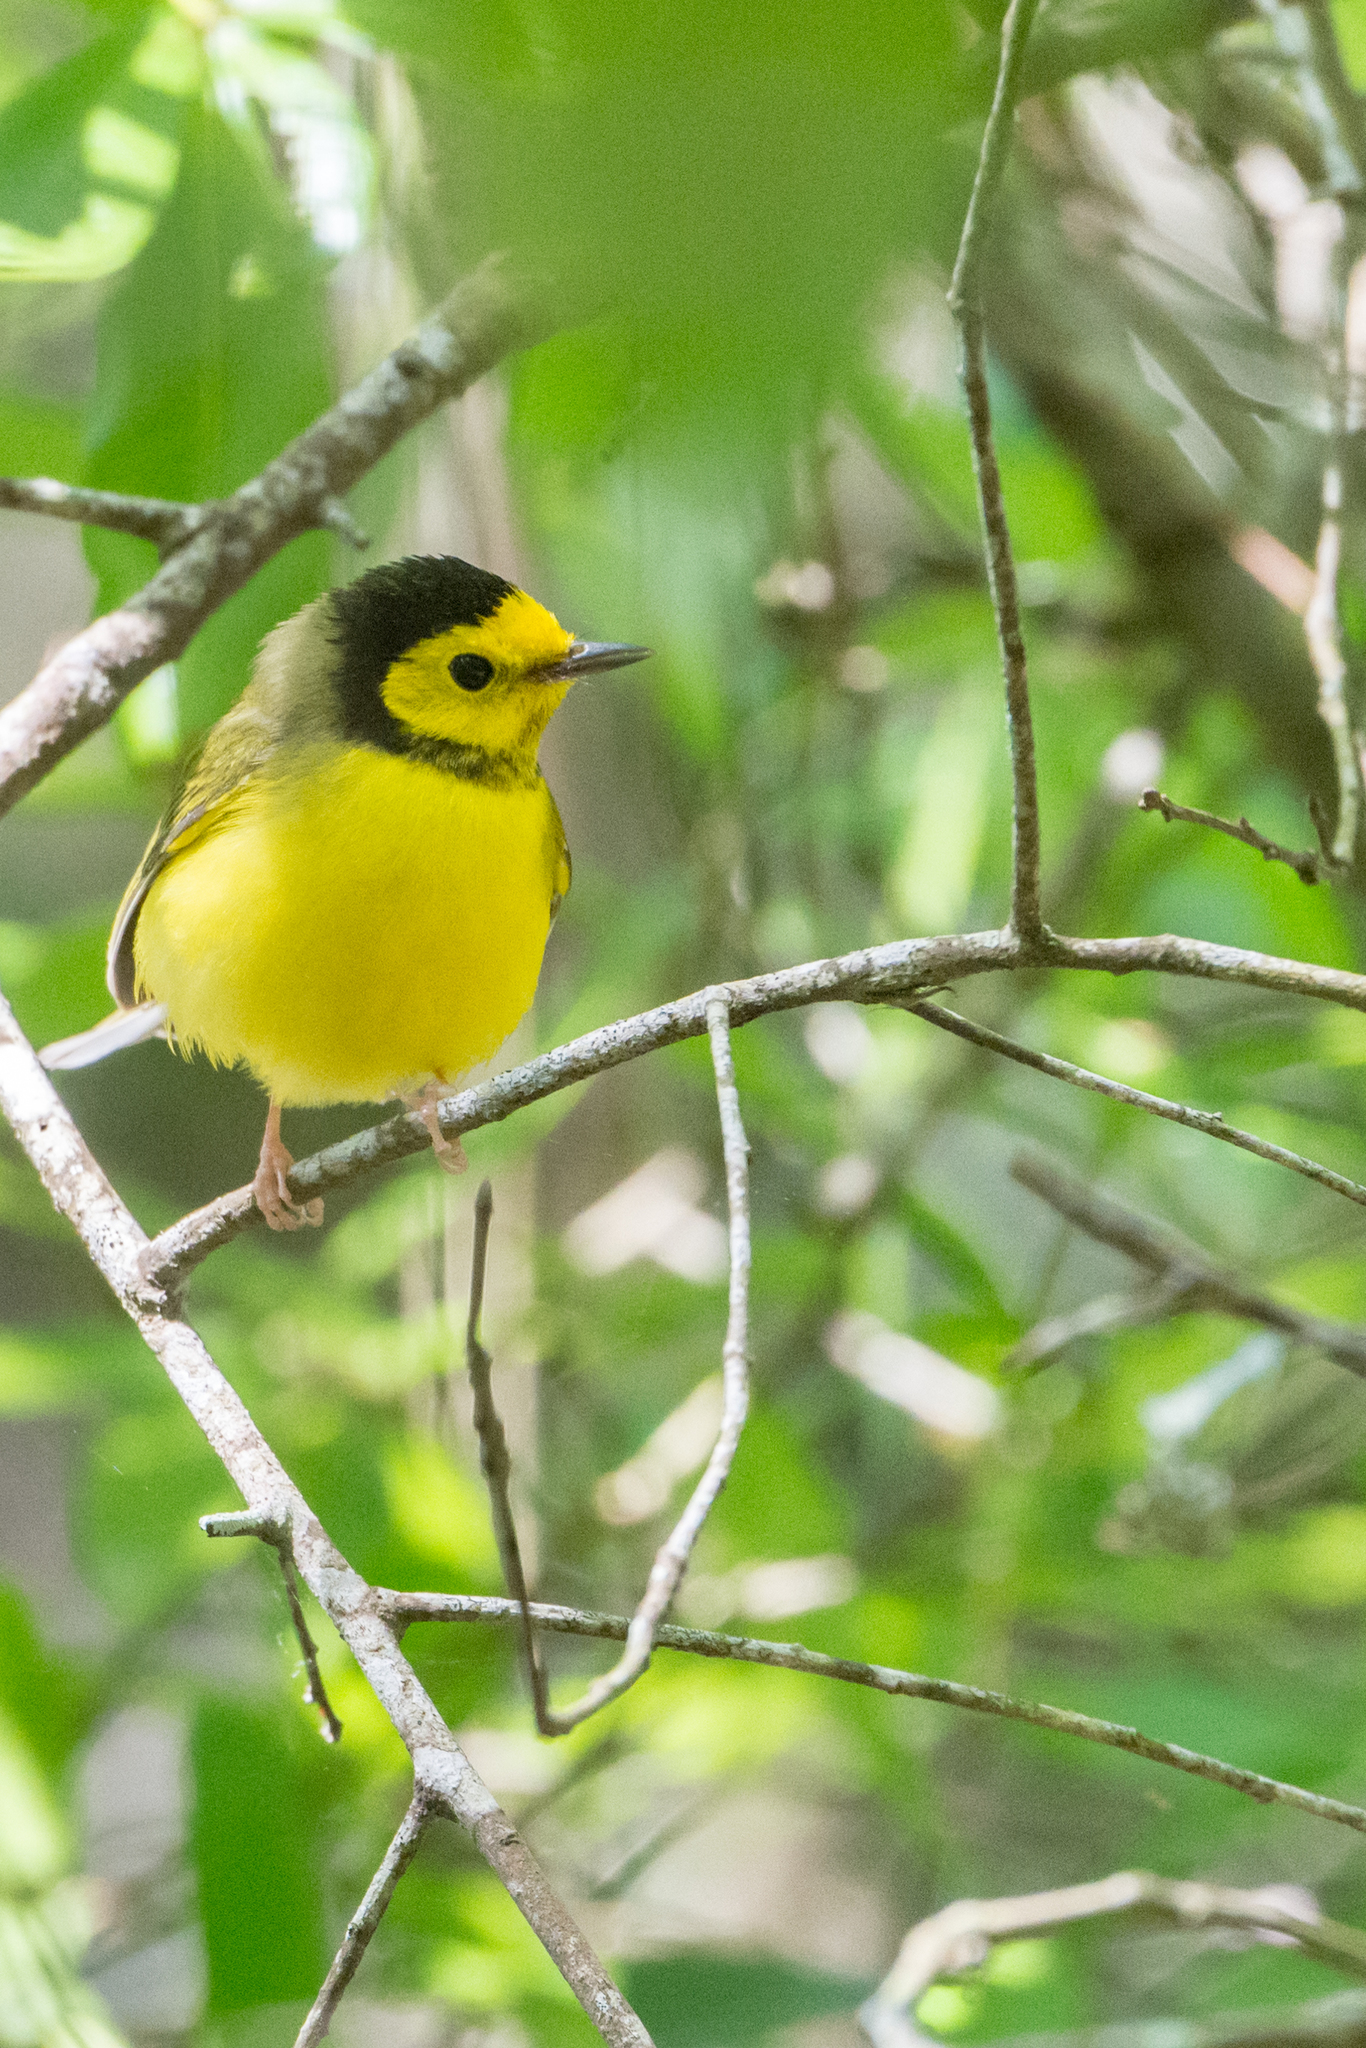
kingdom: Animalia
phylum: Chordata
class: Aves
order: Passeriformes
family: Parulidae
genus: Setophaga
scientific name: Setophaga citrina
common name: Hooded warbler
